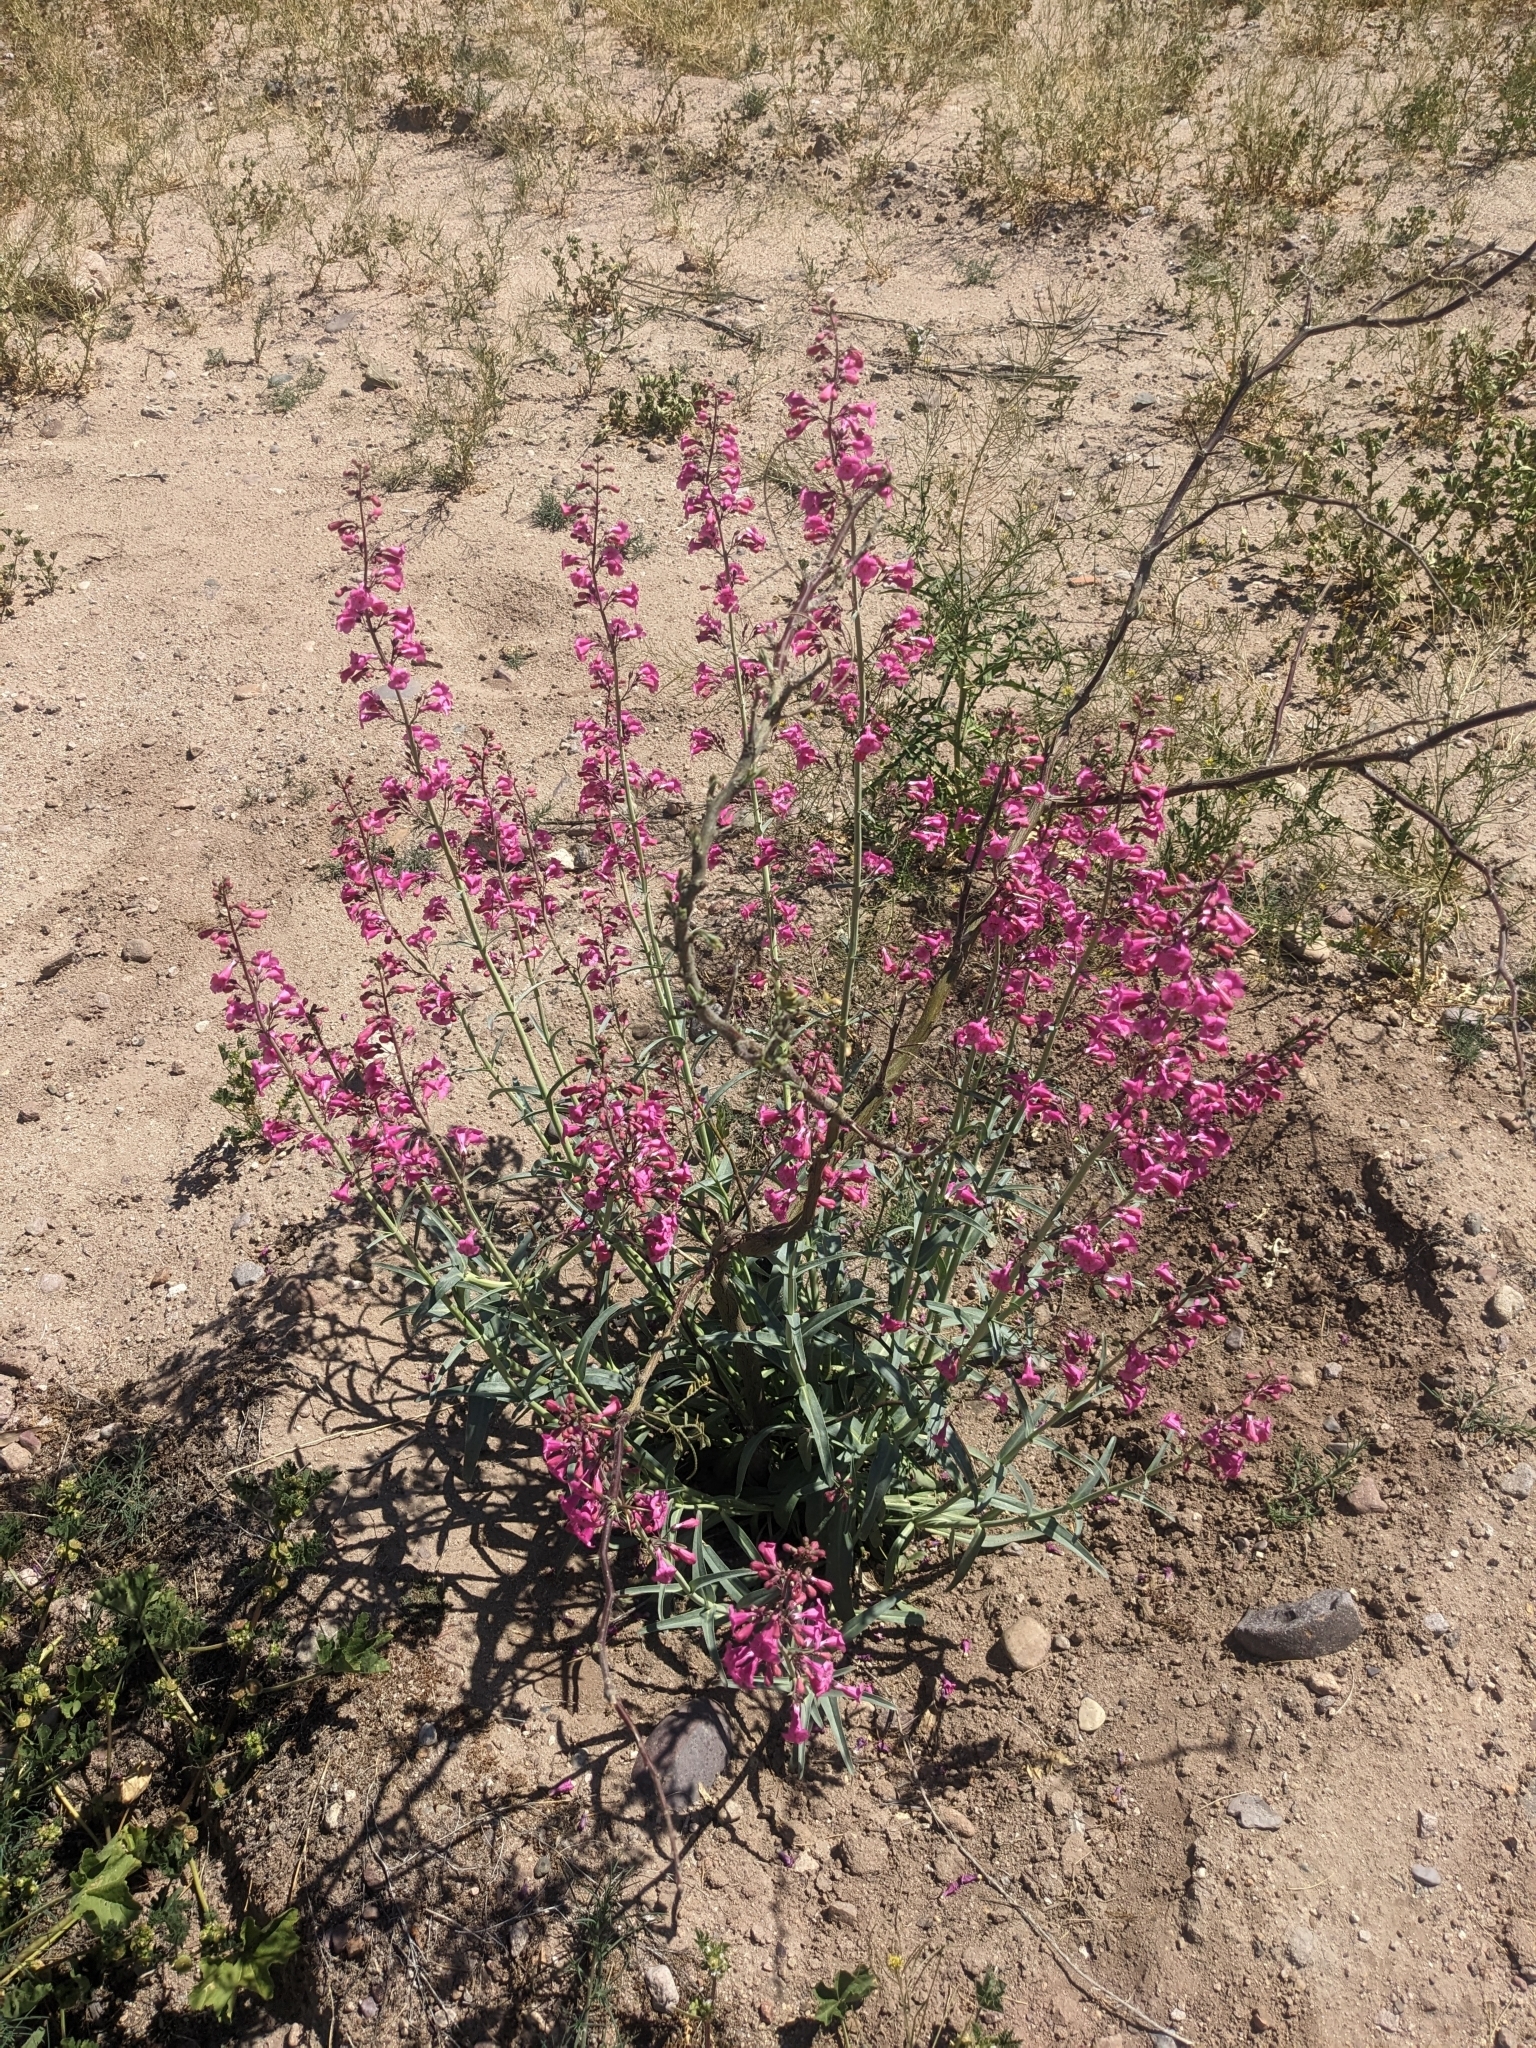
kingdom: Plantae
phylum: Tracheophyta
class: Magnoliopsida
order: Lamiales
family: Plantaginaceae
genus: Penstemon
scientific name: Penstemon parryi
